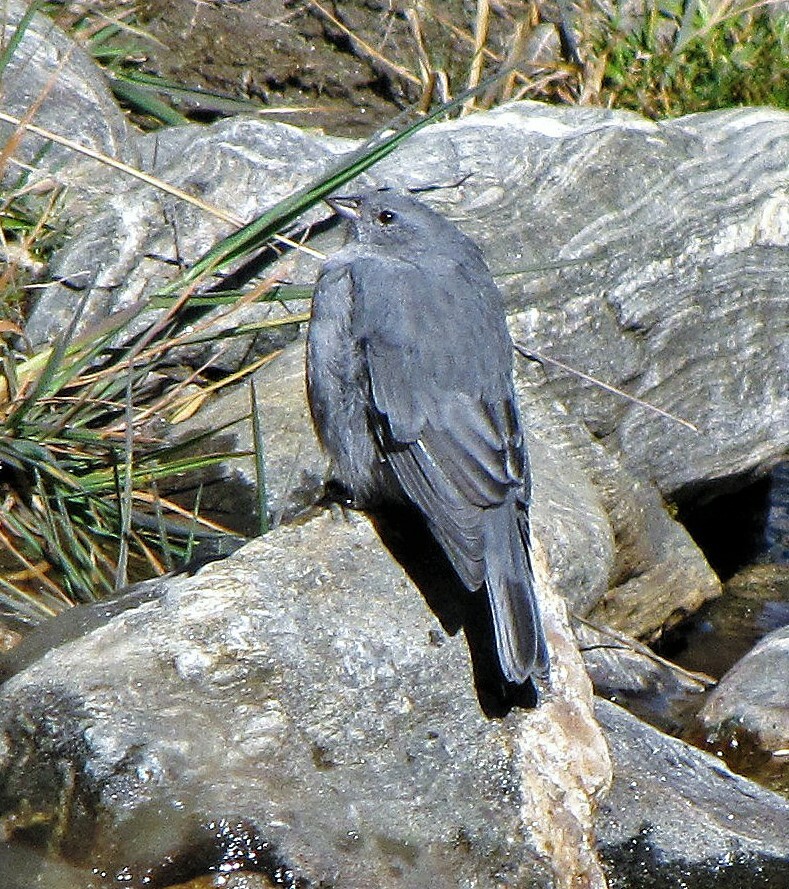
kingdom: Animalia
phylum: Chordata
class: Aves
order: Passeriformes
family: Thraupidae
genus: Geospizopsis
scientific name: Geospizopsis unicolor
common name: Plumbeous sierra-finch
